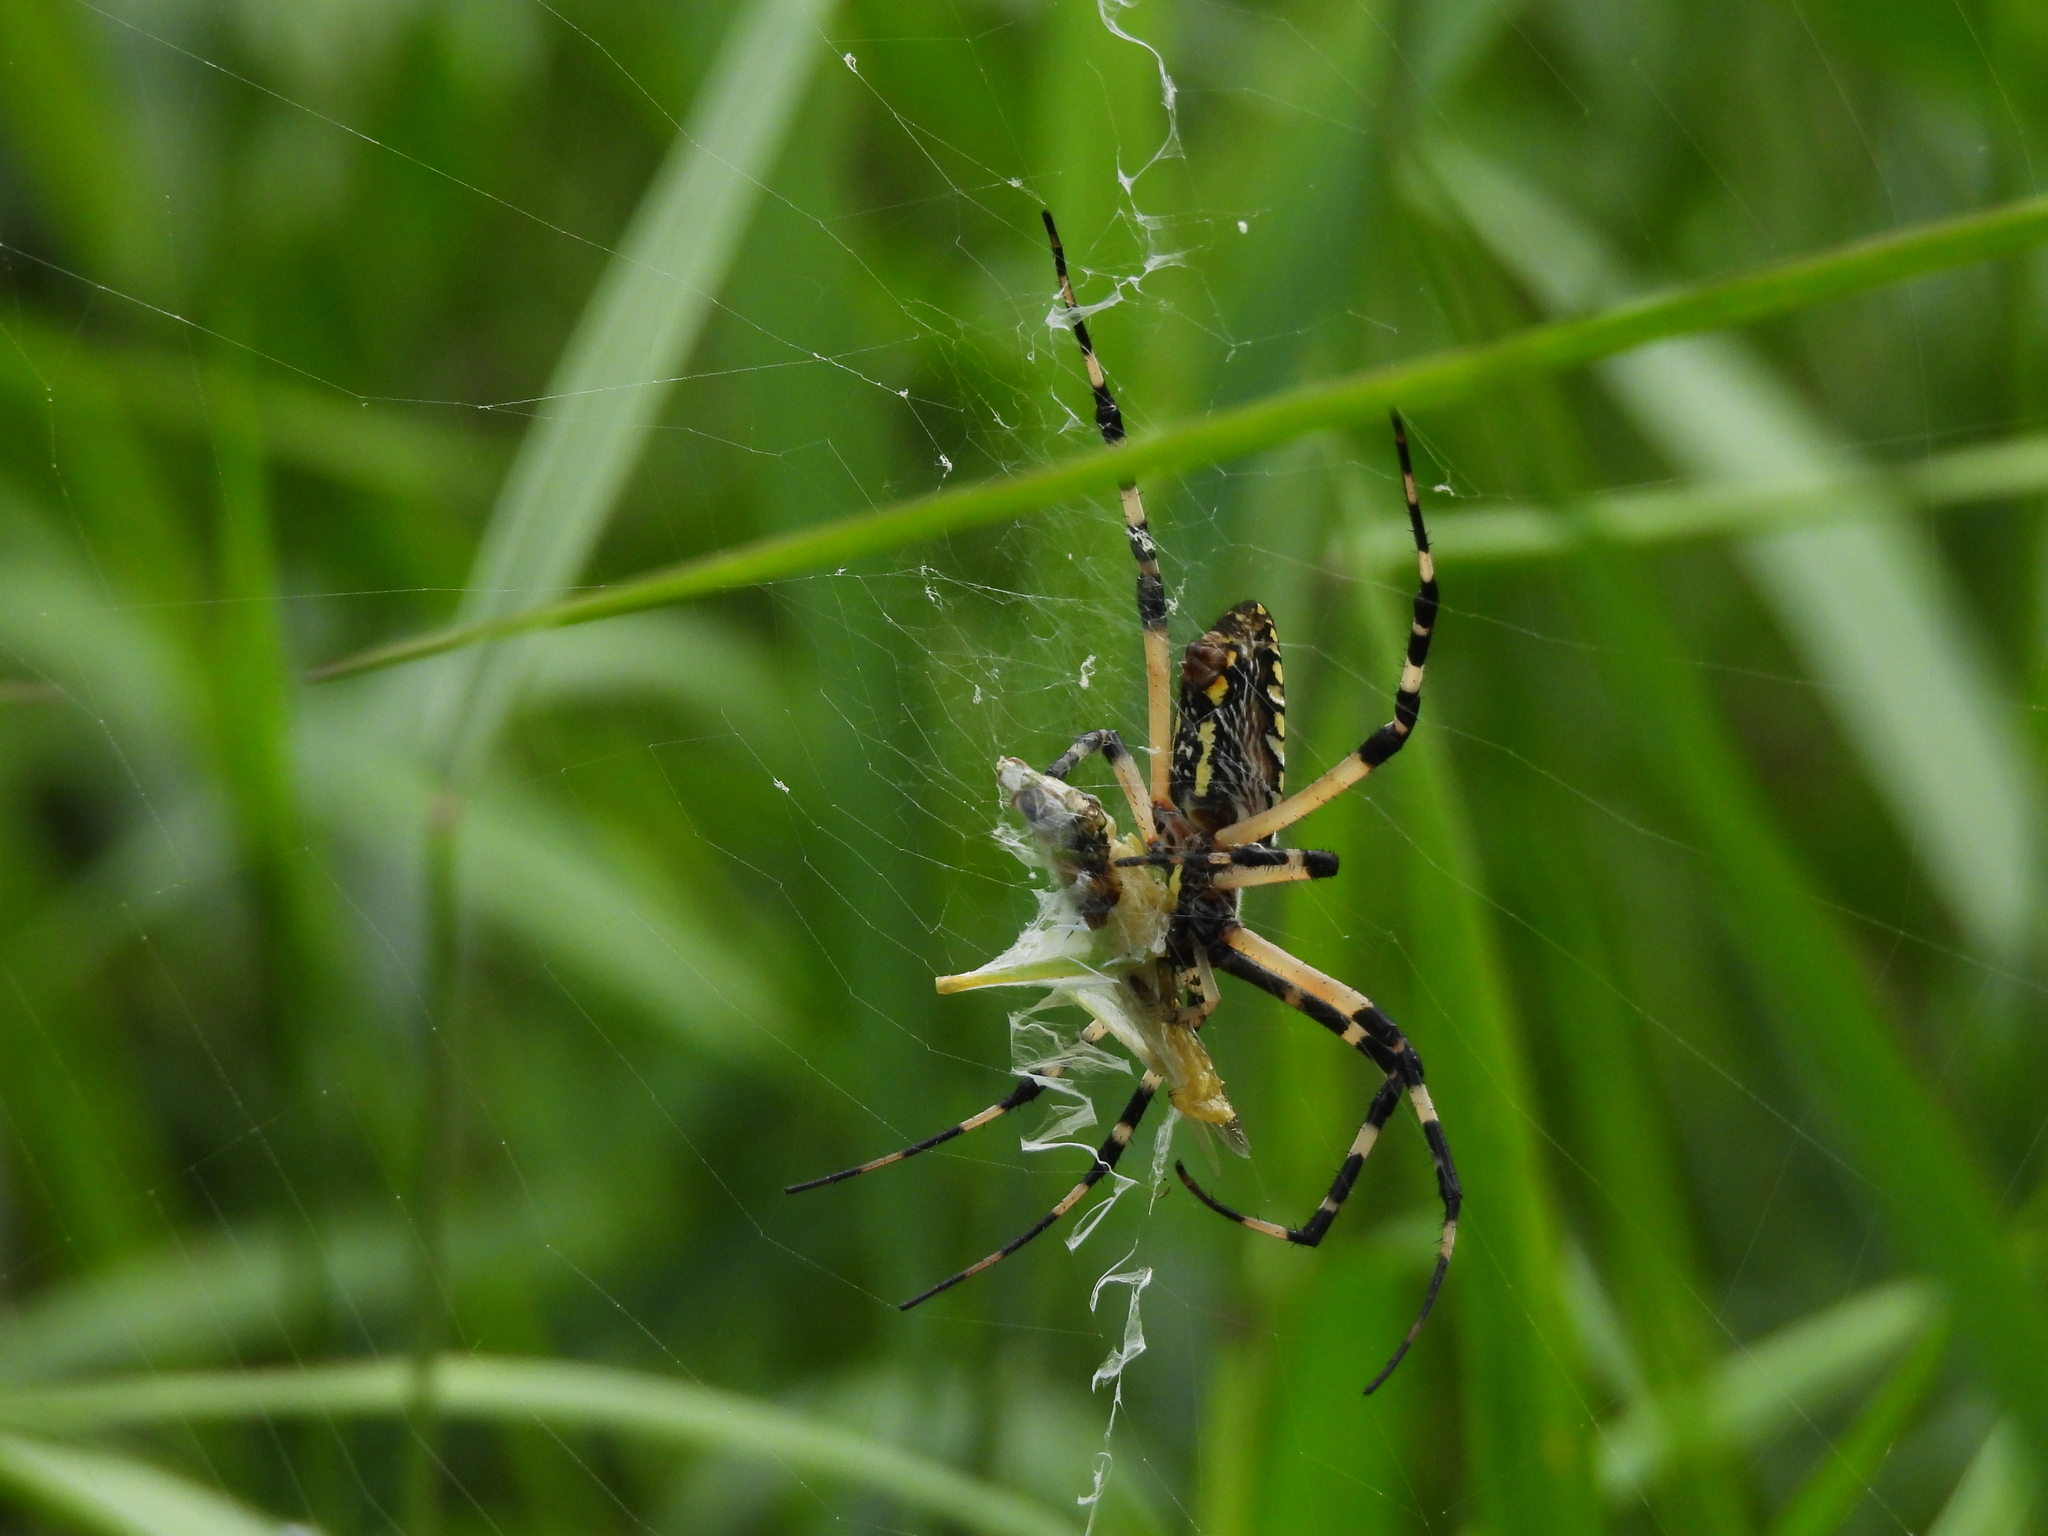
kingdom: Animalia
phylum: Arthropoda
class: Arachnida
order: Araneae
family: Araneidae
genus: Argiope
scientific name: Argiope aurantia
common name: Orb weavers
